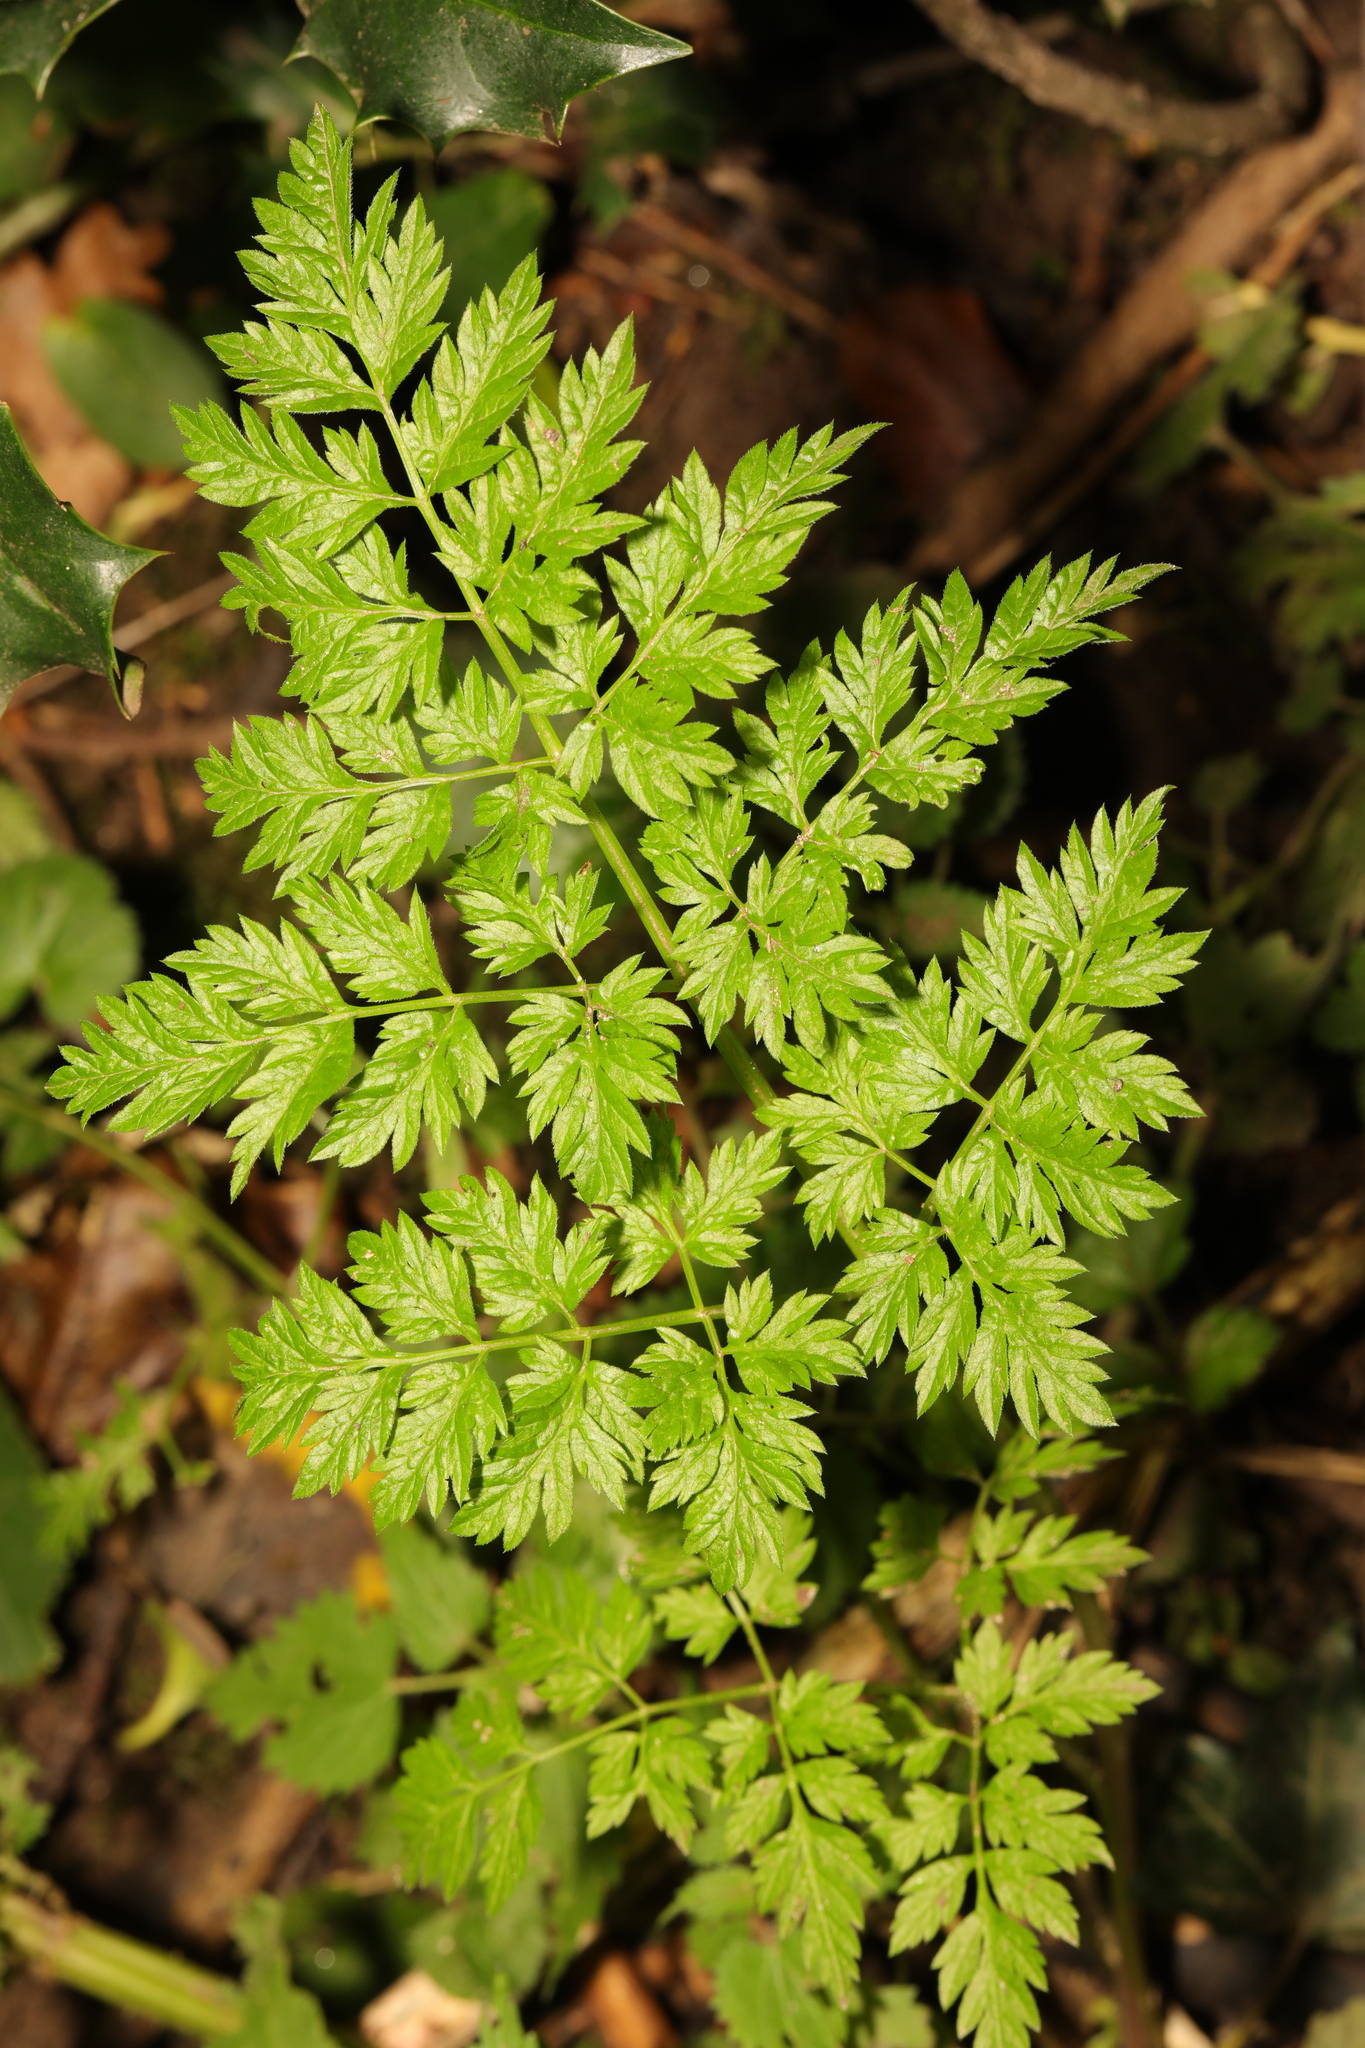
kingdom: Plantae
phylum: Tracheophyta
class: Magnoliopsida
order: Apiales
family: Apiaceae
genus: Anthriscus
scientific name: Anthriscus sylvestris
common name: Cow parsley
